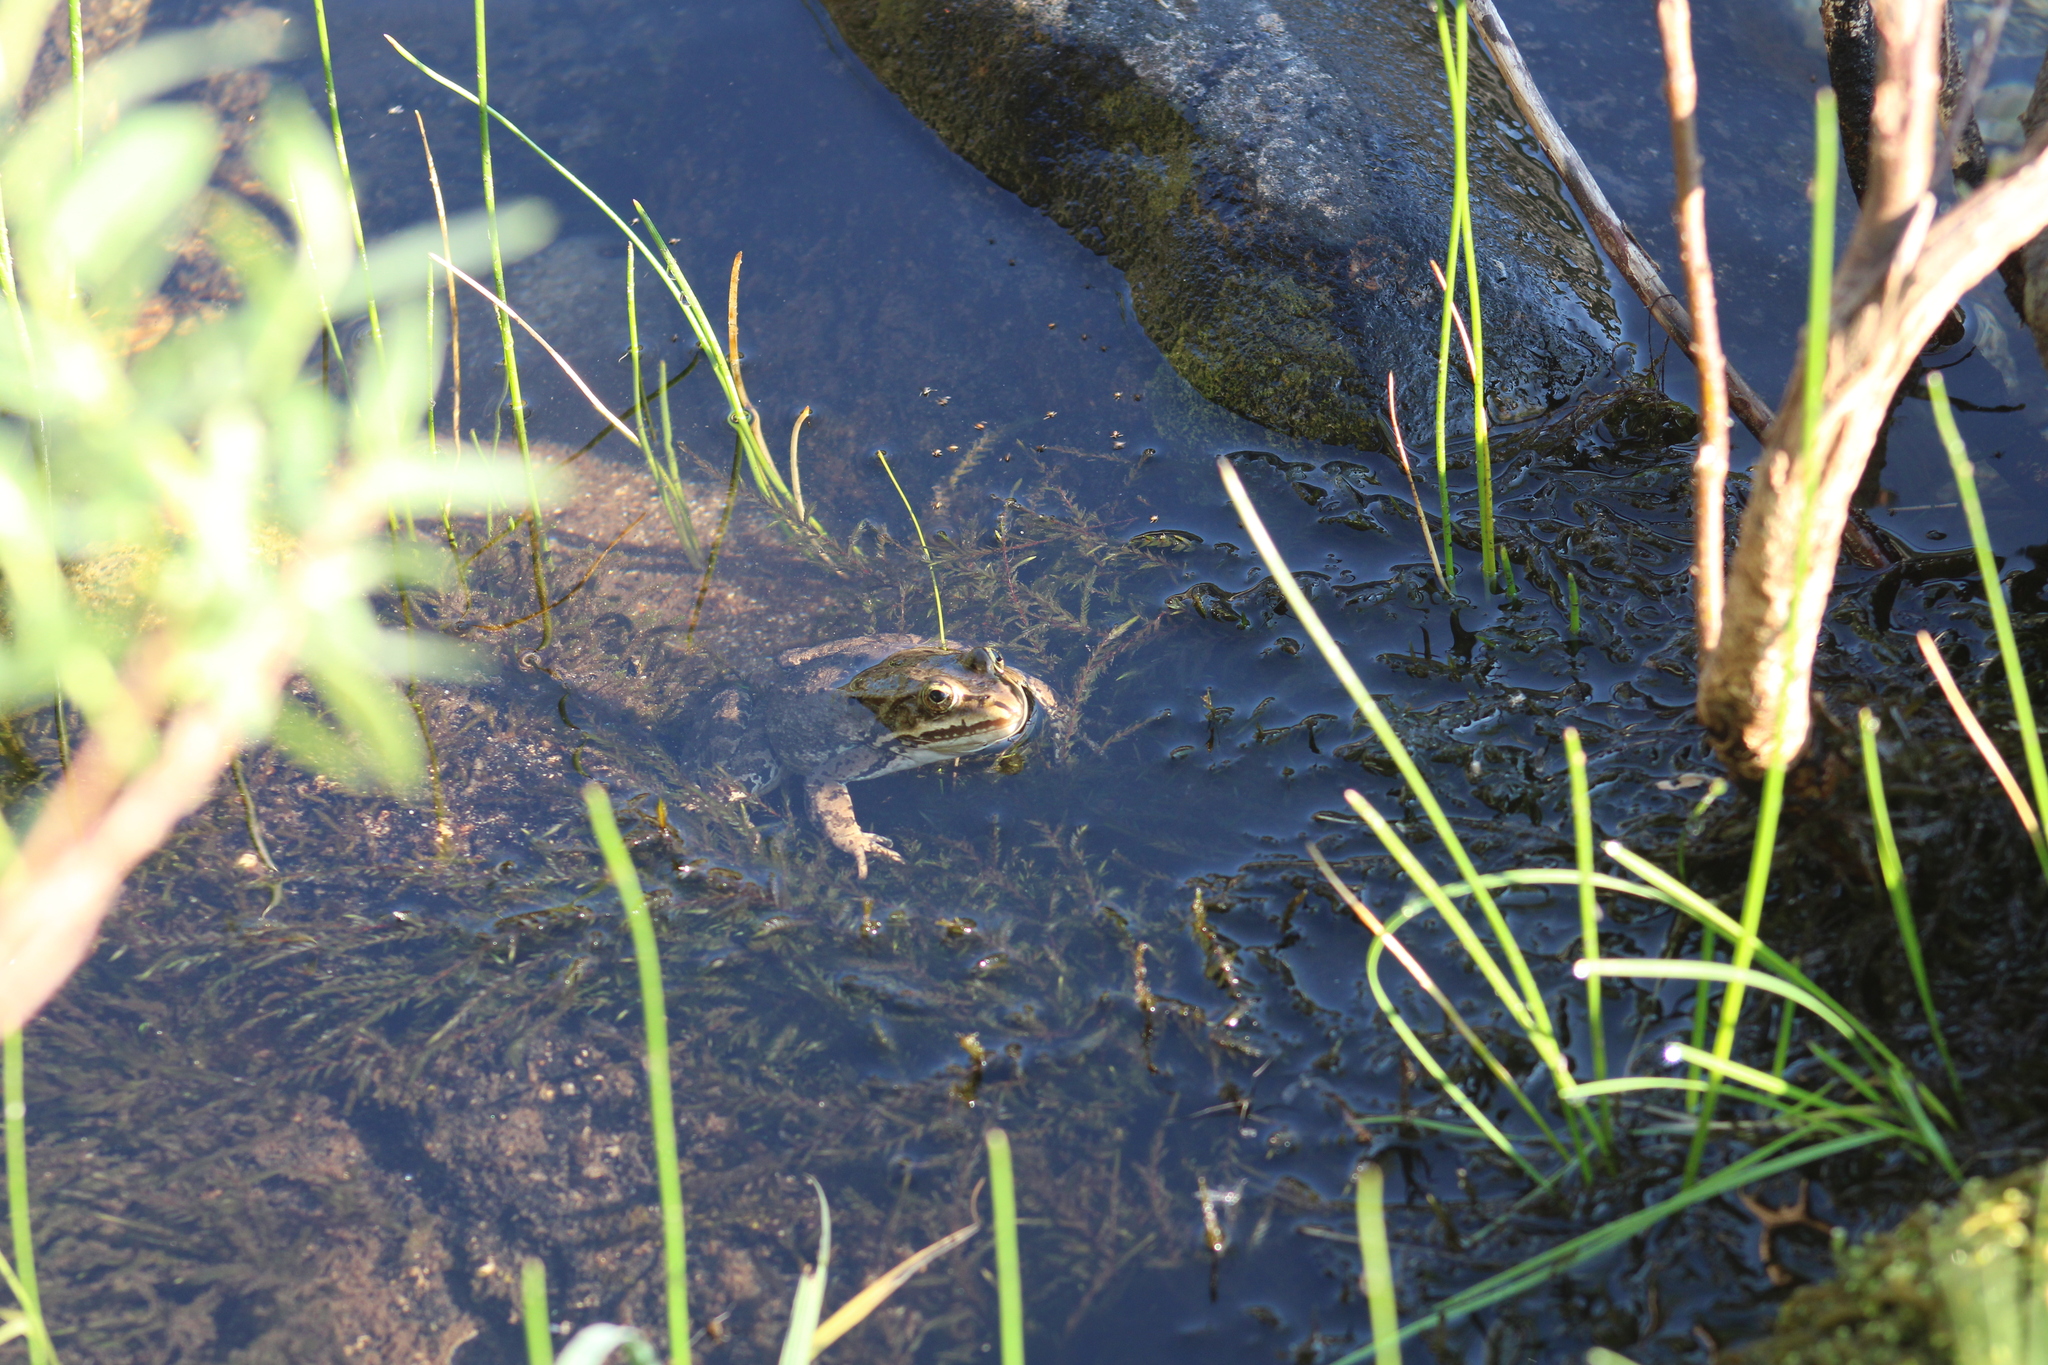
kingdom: Animalia
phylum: Chordata
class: Amphibia
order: Anura
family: Ranidae
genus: Rana
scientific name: Rana luteiventris
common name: Columbia spotted frog
